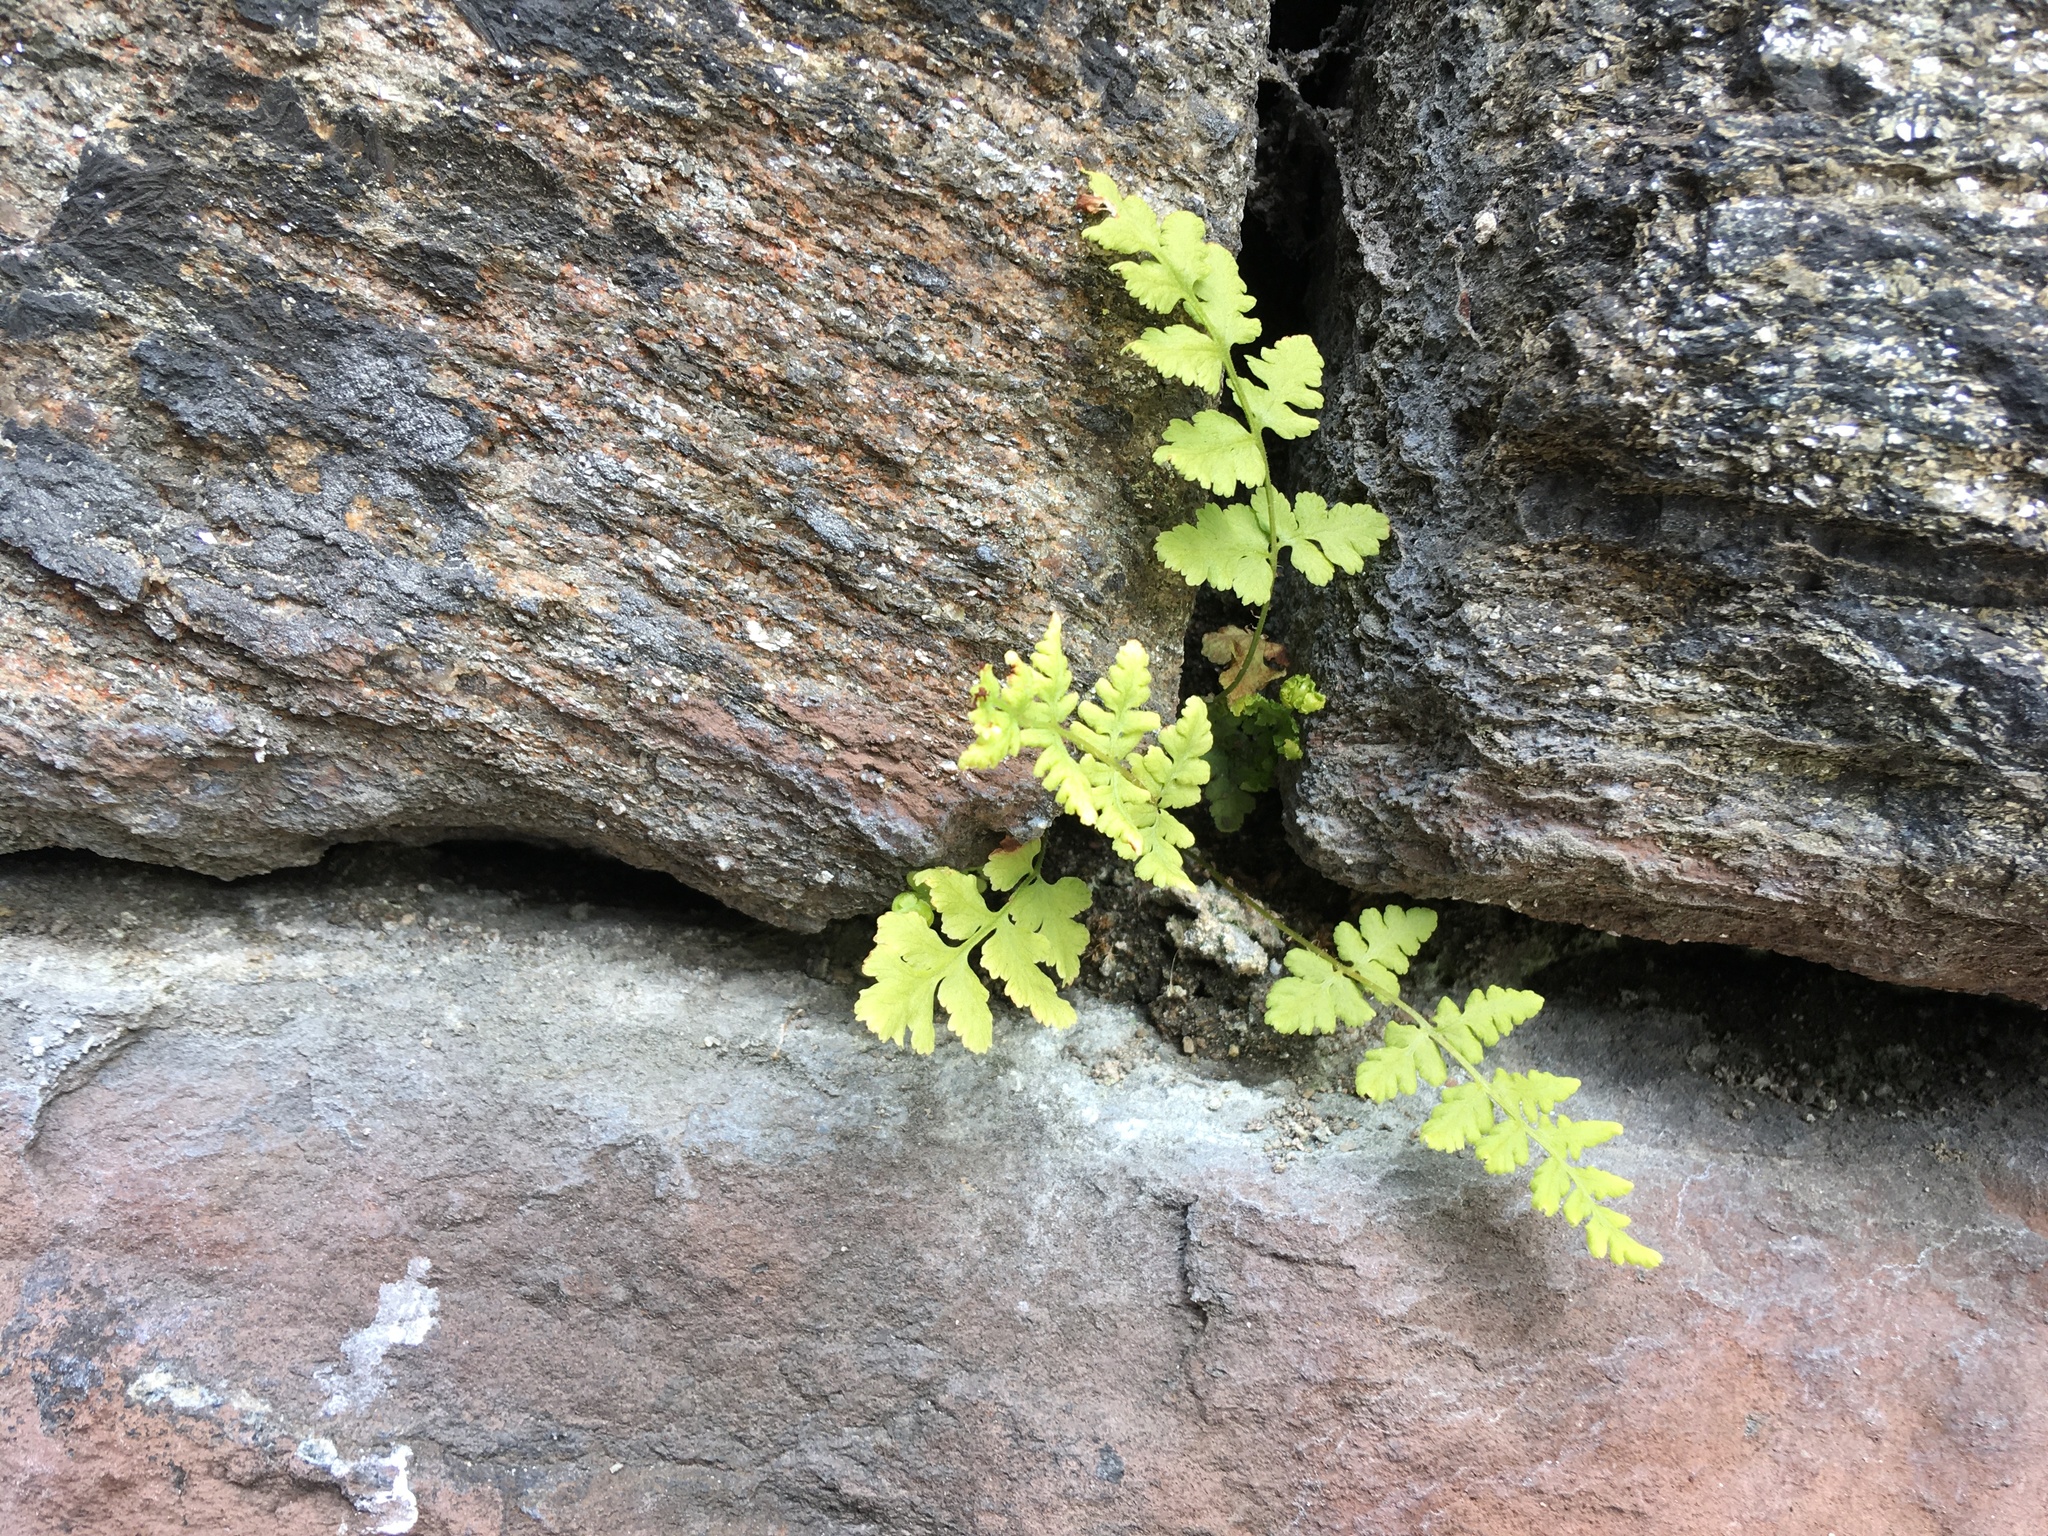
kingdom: Plantae
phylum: Tracheophyta
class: Polypodiopsida
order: Polypodiales
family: Woodsiaceae
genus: Physematium
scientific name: Physematium obtusum
